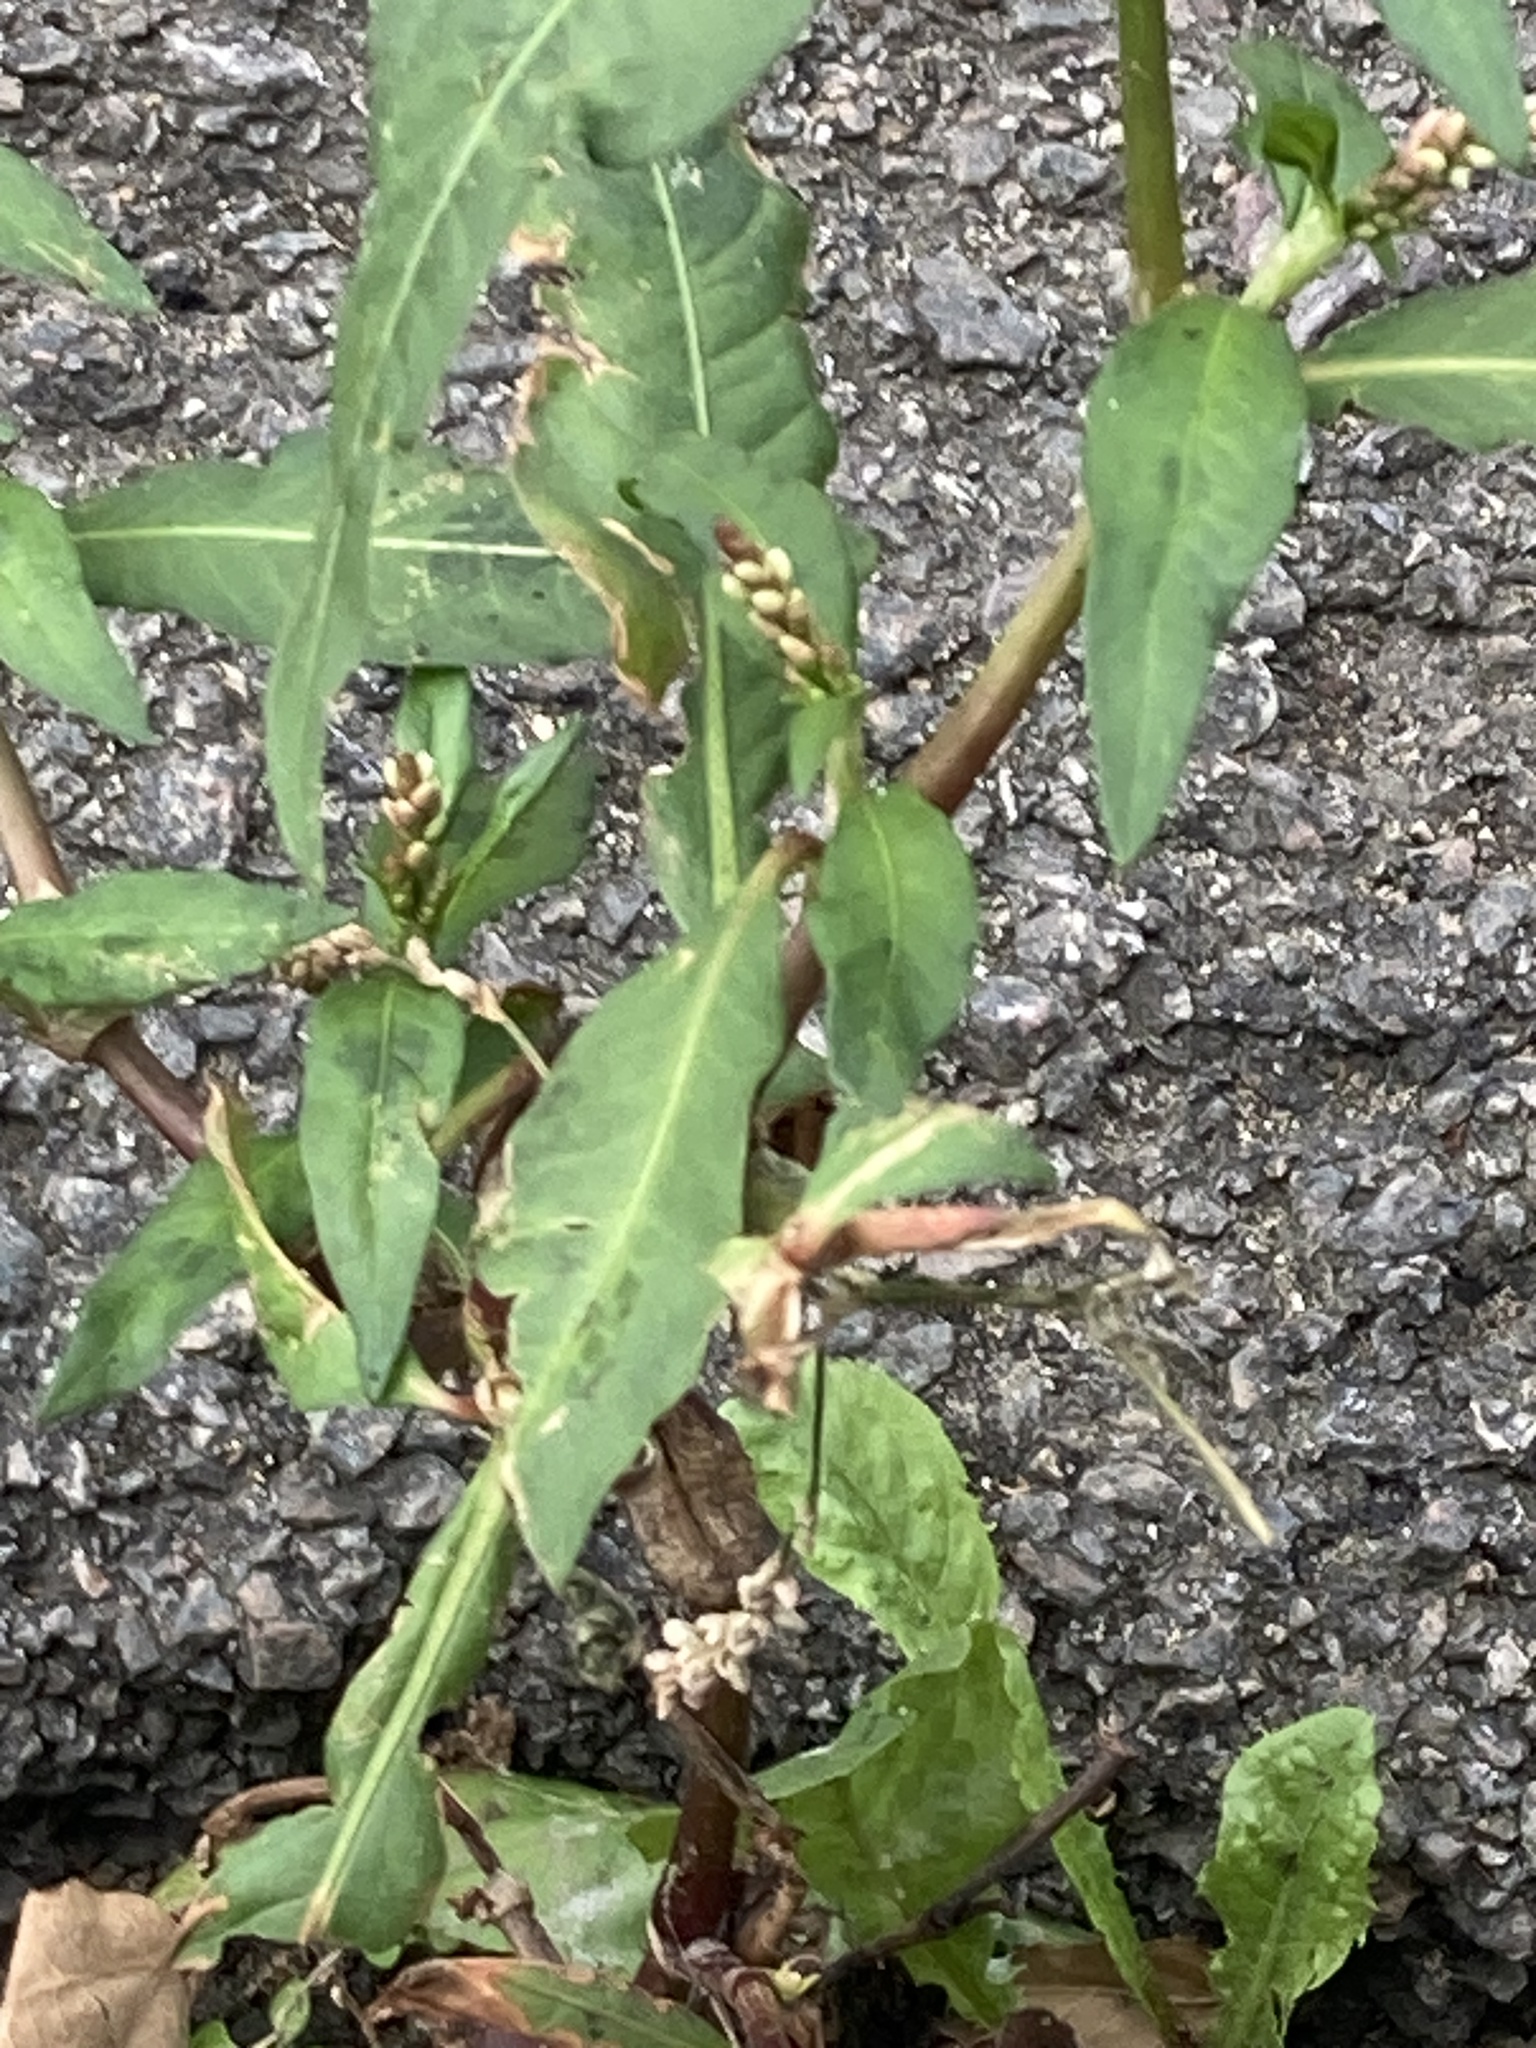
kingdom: Plantae
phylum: Tracheophyta
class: Magnoliopsida
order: Caryophyllales
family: Polygonaceae
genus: Persicaria
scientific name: Persicaria maculosa
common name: Redshank
